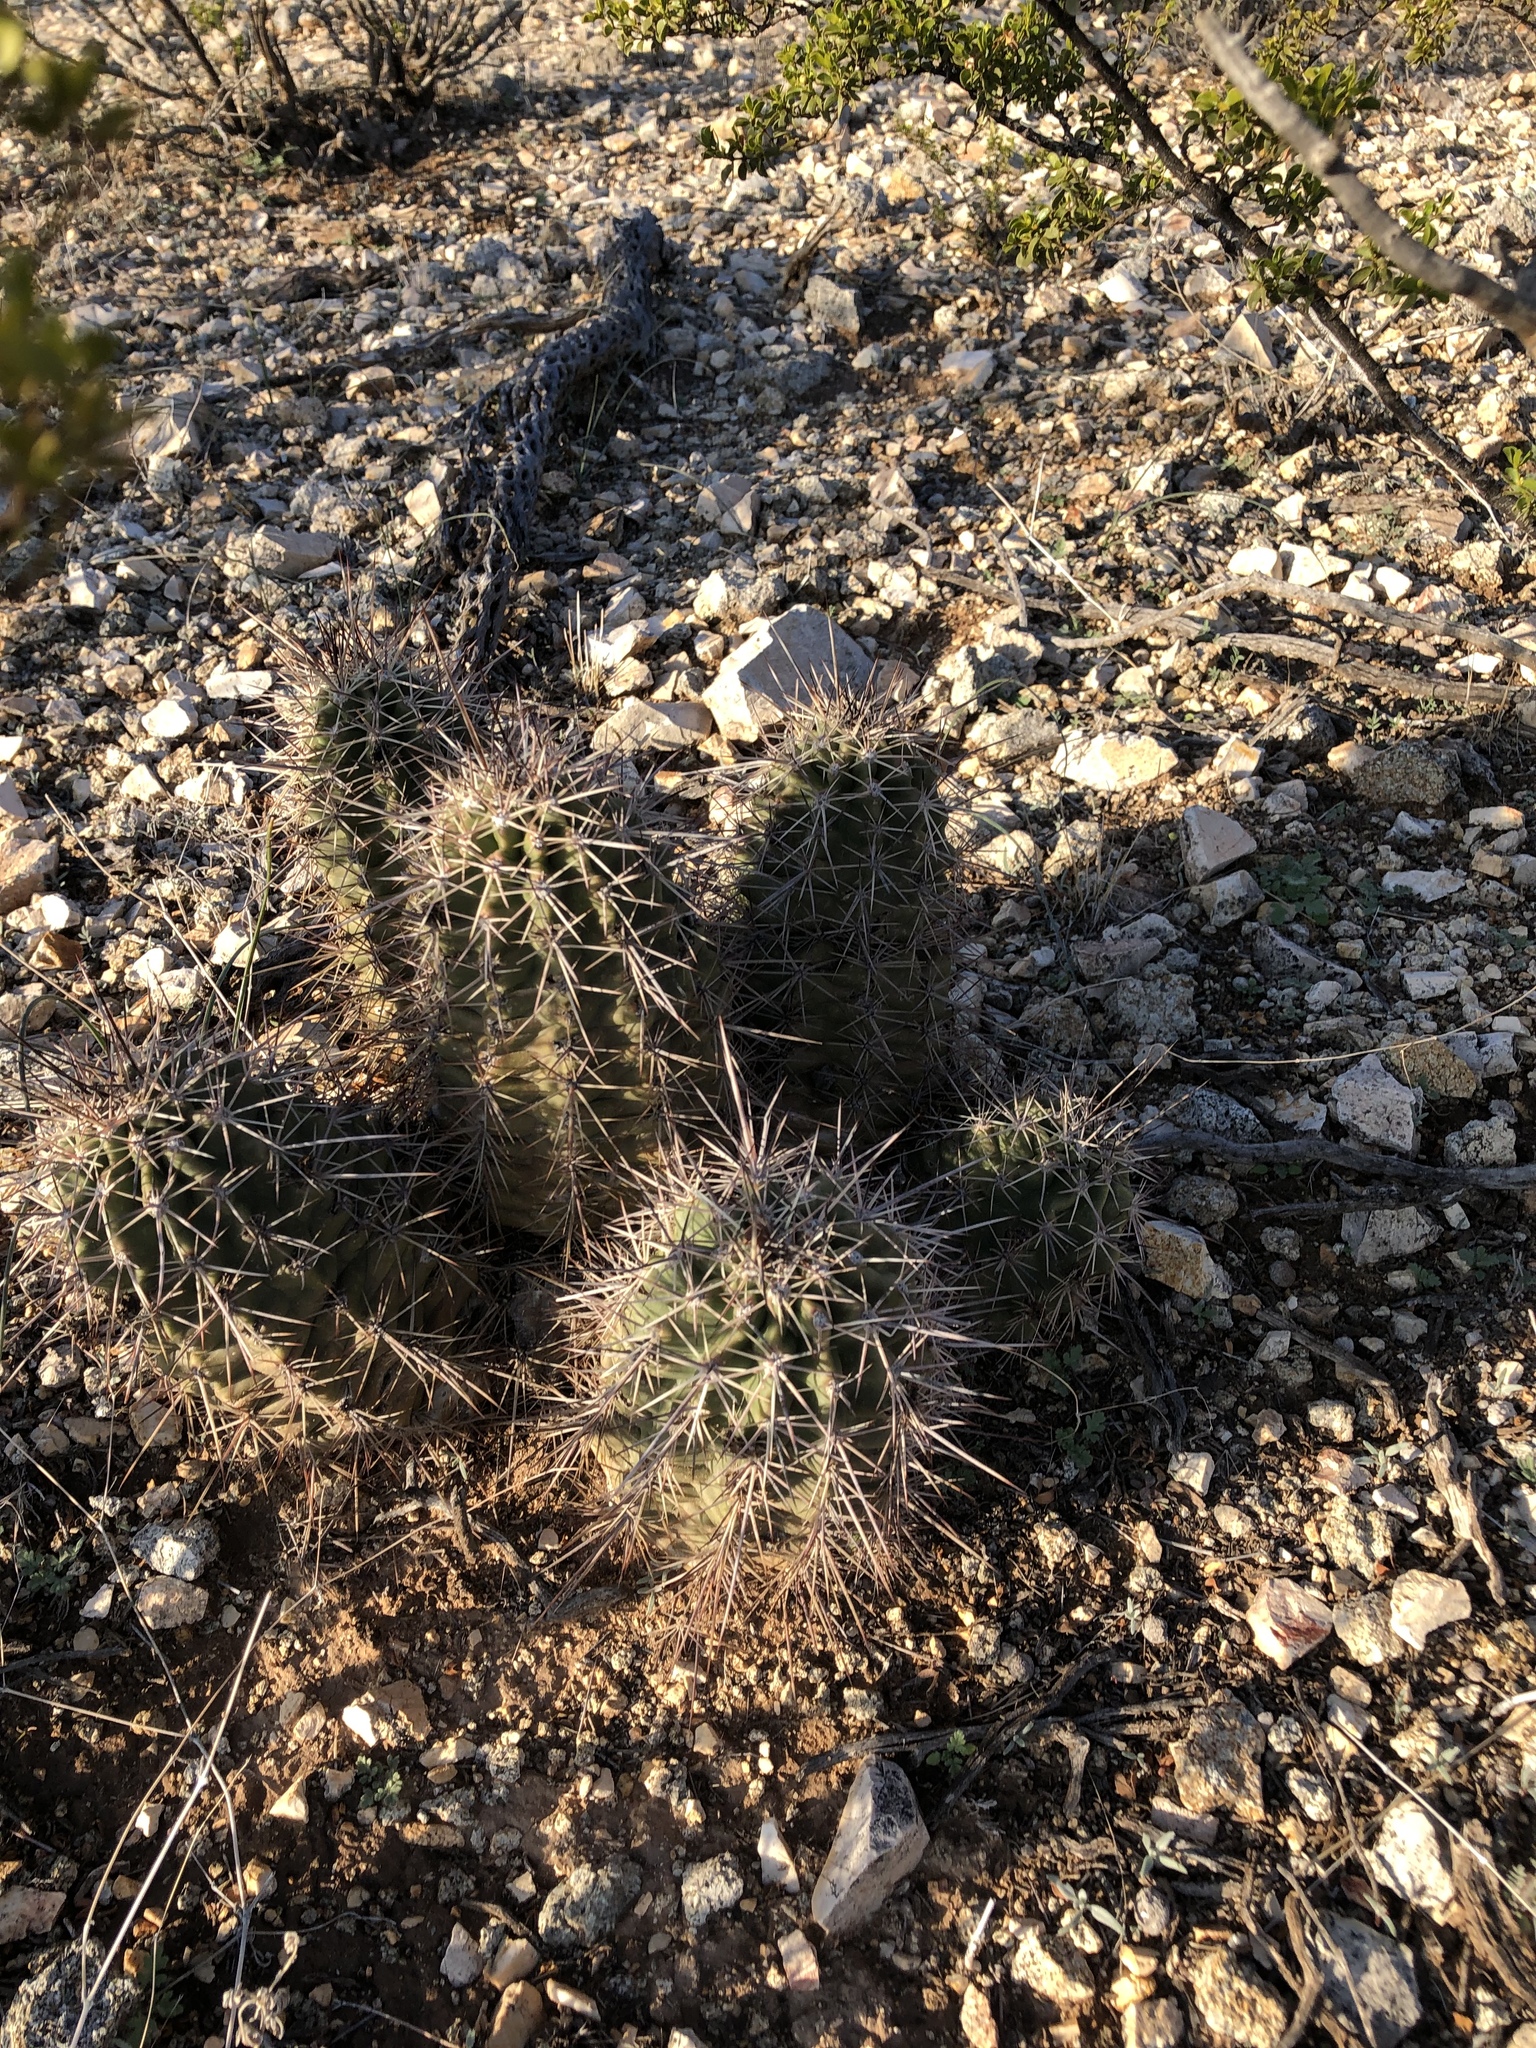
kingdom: Plantae
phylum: Tracheophyta
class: Magnoliopsida
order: Caryophyllales
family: Cactaceae
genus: Echinocereus
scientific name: Echinocereus coccineus
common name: Scarlet hedgehog cactus
